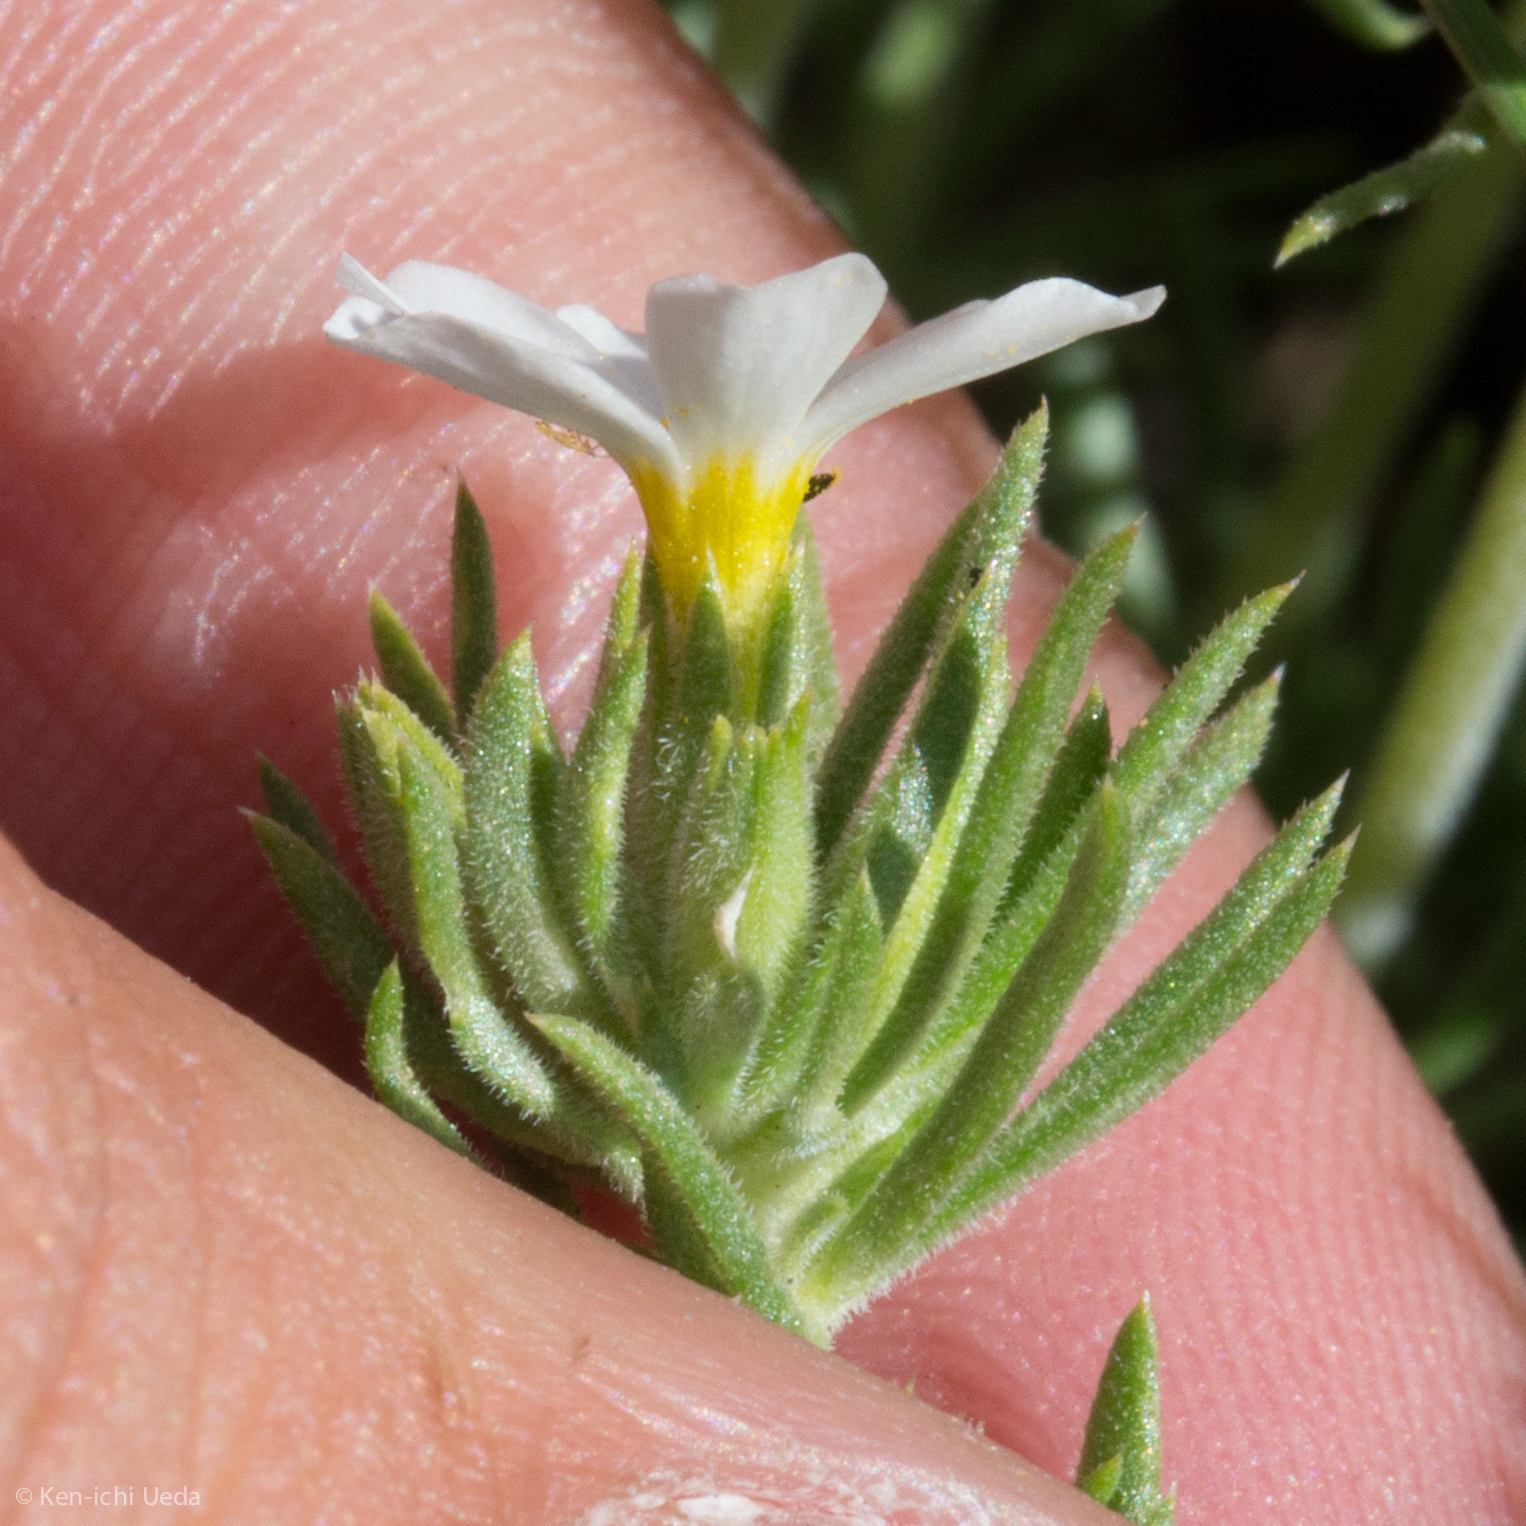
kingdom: Plantae
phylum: Tracheophyta
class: Magnoliopsida
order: Ericales
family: Polemoniaceae
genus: Leptosiphon
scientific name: Leptosiphon nuttallii
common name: Nuttall's linanthus
